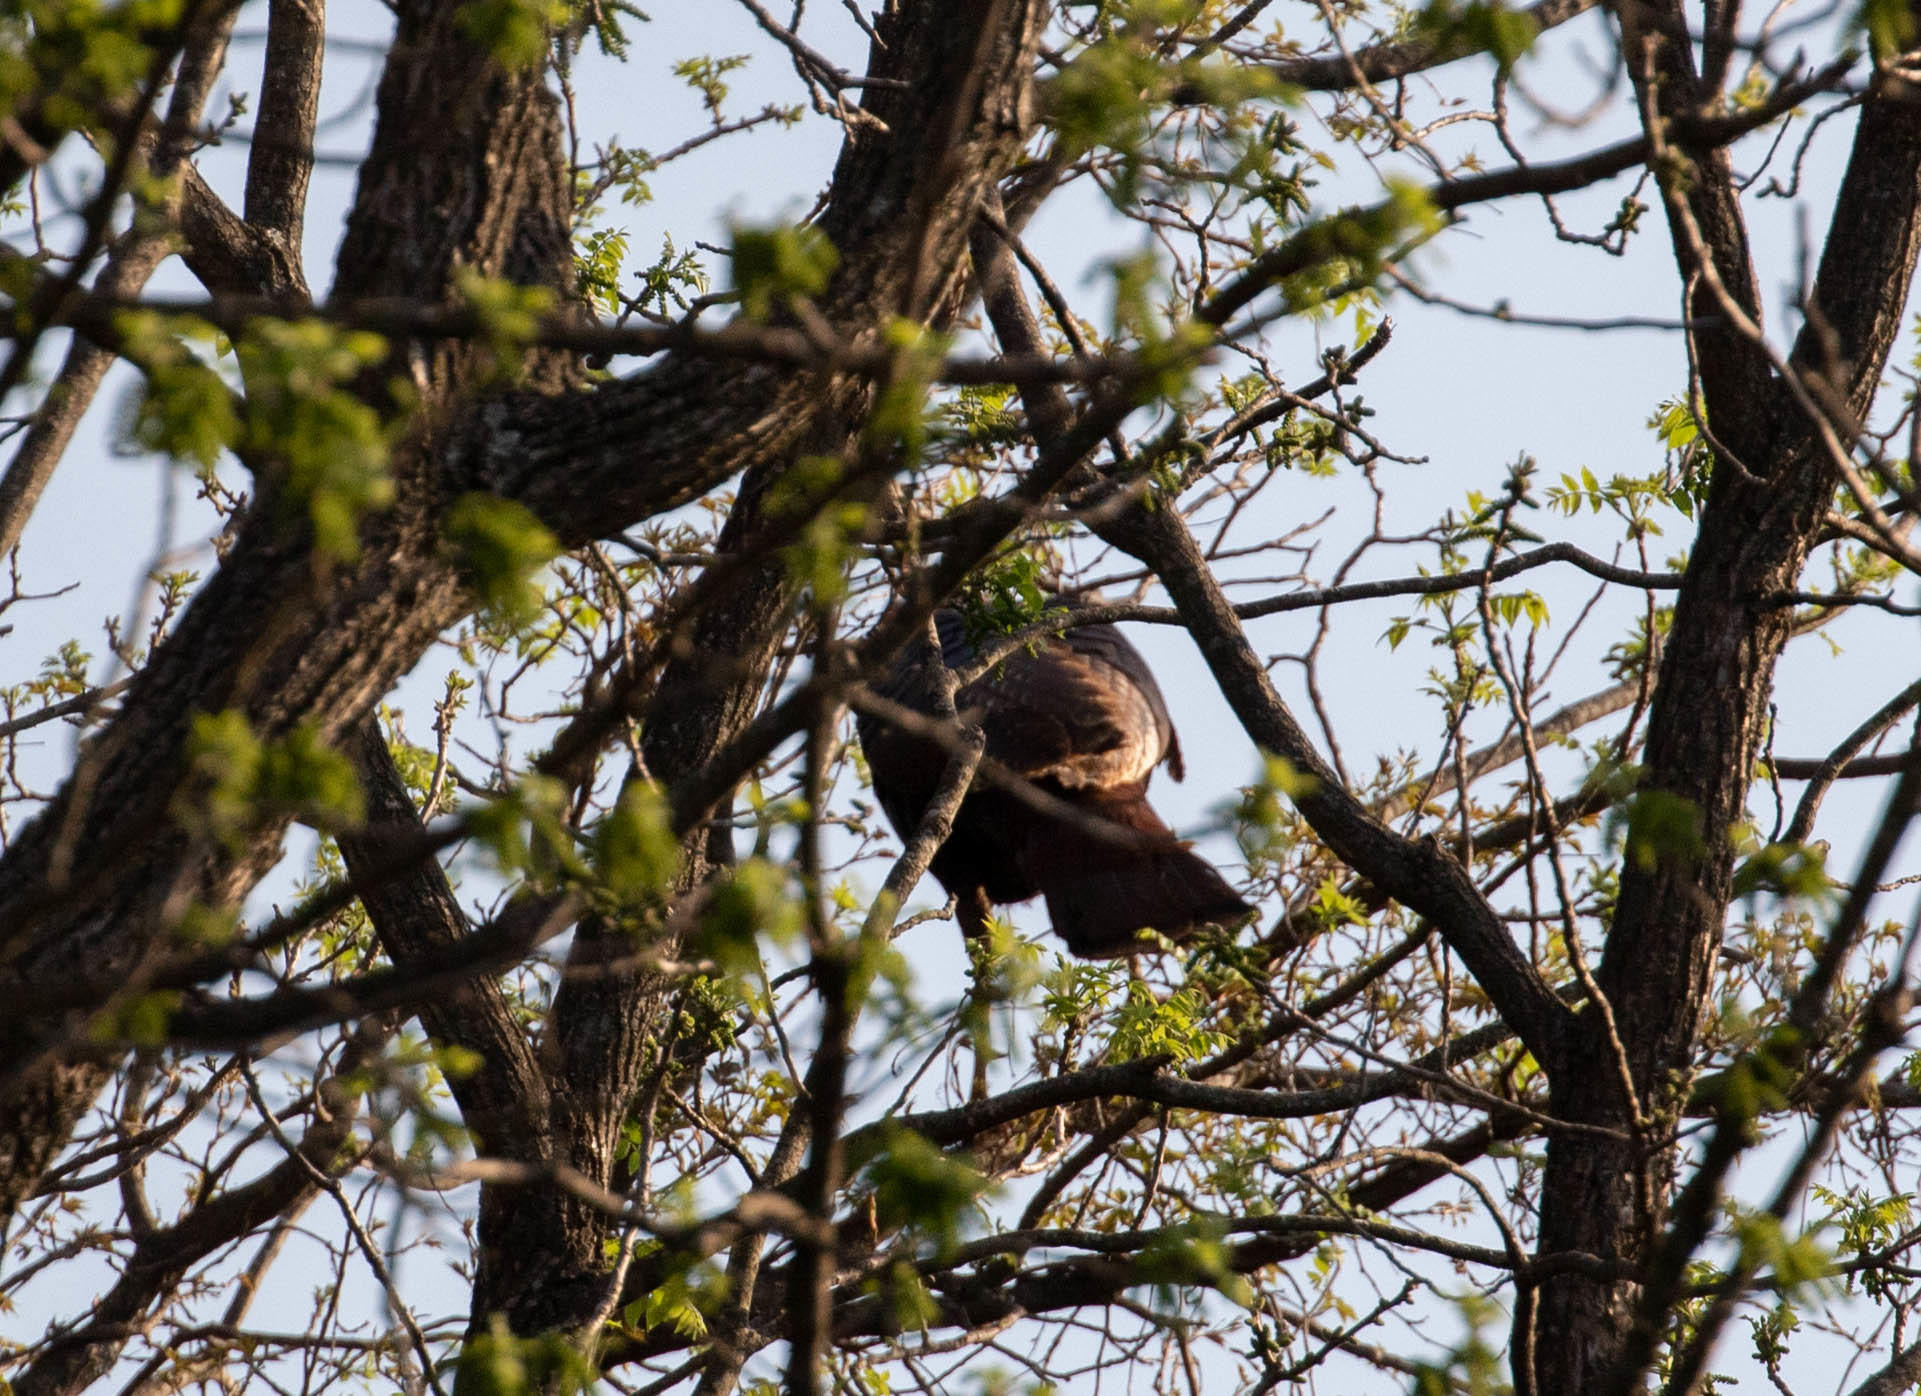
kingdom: Animalia
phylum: Chordata
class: Aves
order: Galliformes
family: Phasianidae
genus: Meleagris
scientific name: Meleagris gallopavo
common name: Wild turkey
